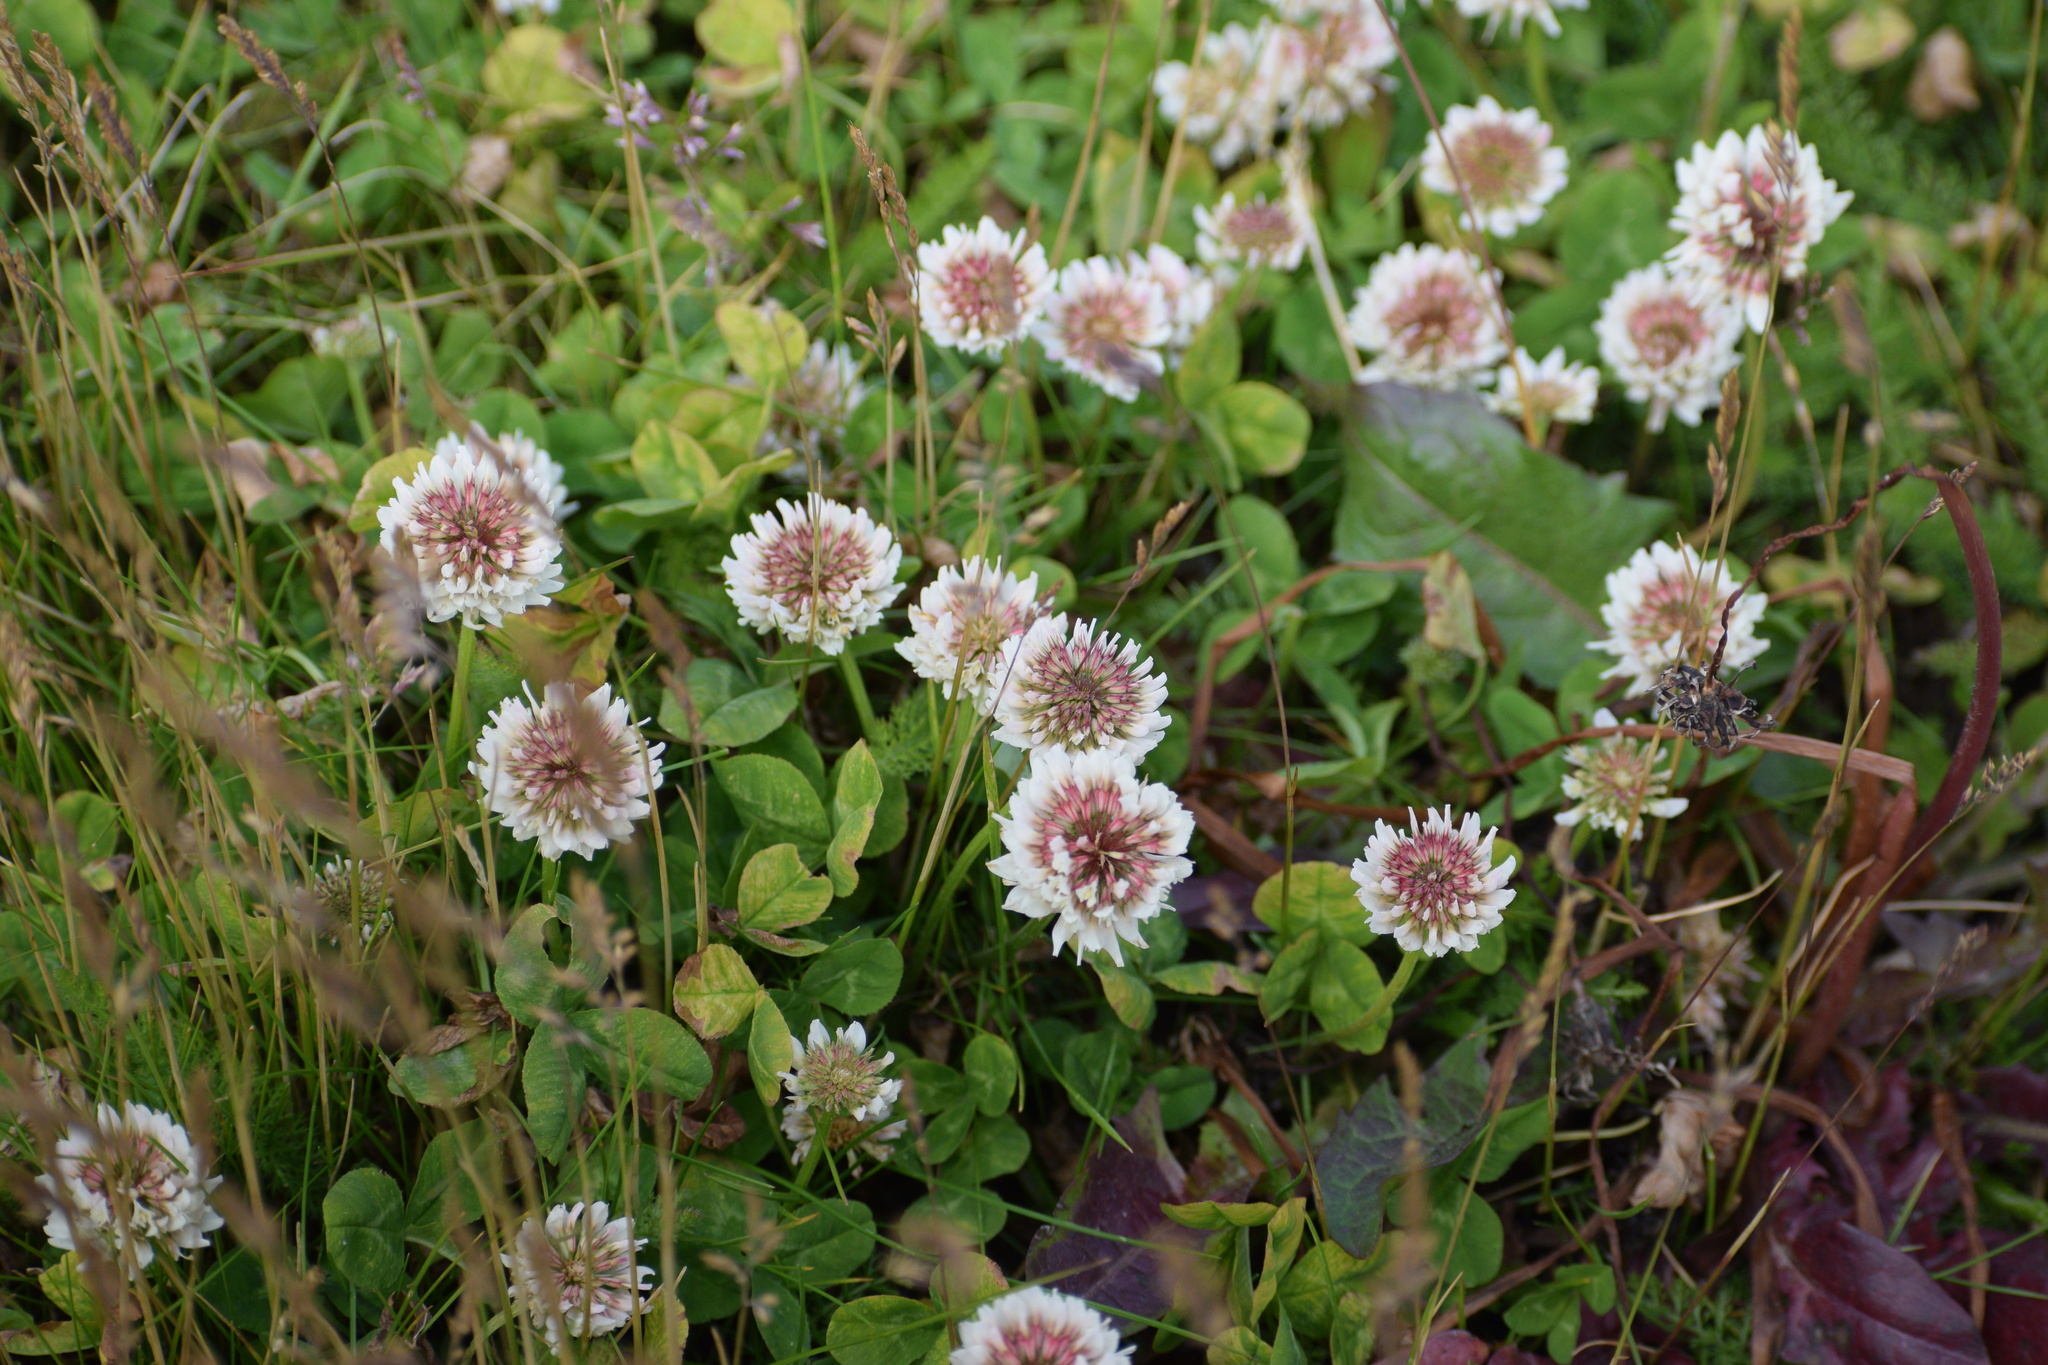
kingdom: Plantae
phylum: Tracheophyta
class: Magnoliopsida
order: Fabales
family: Fabaceae
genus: Trifolium
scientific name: Trifolium repens
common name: White clover
